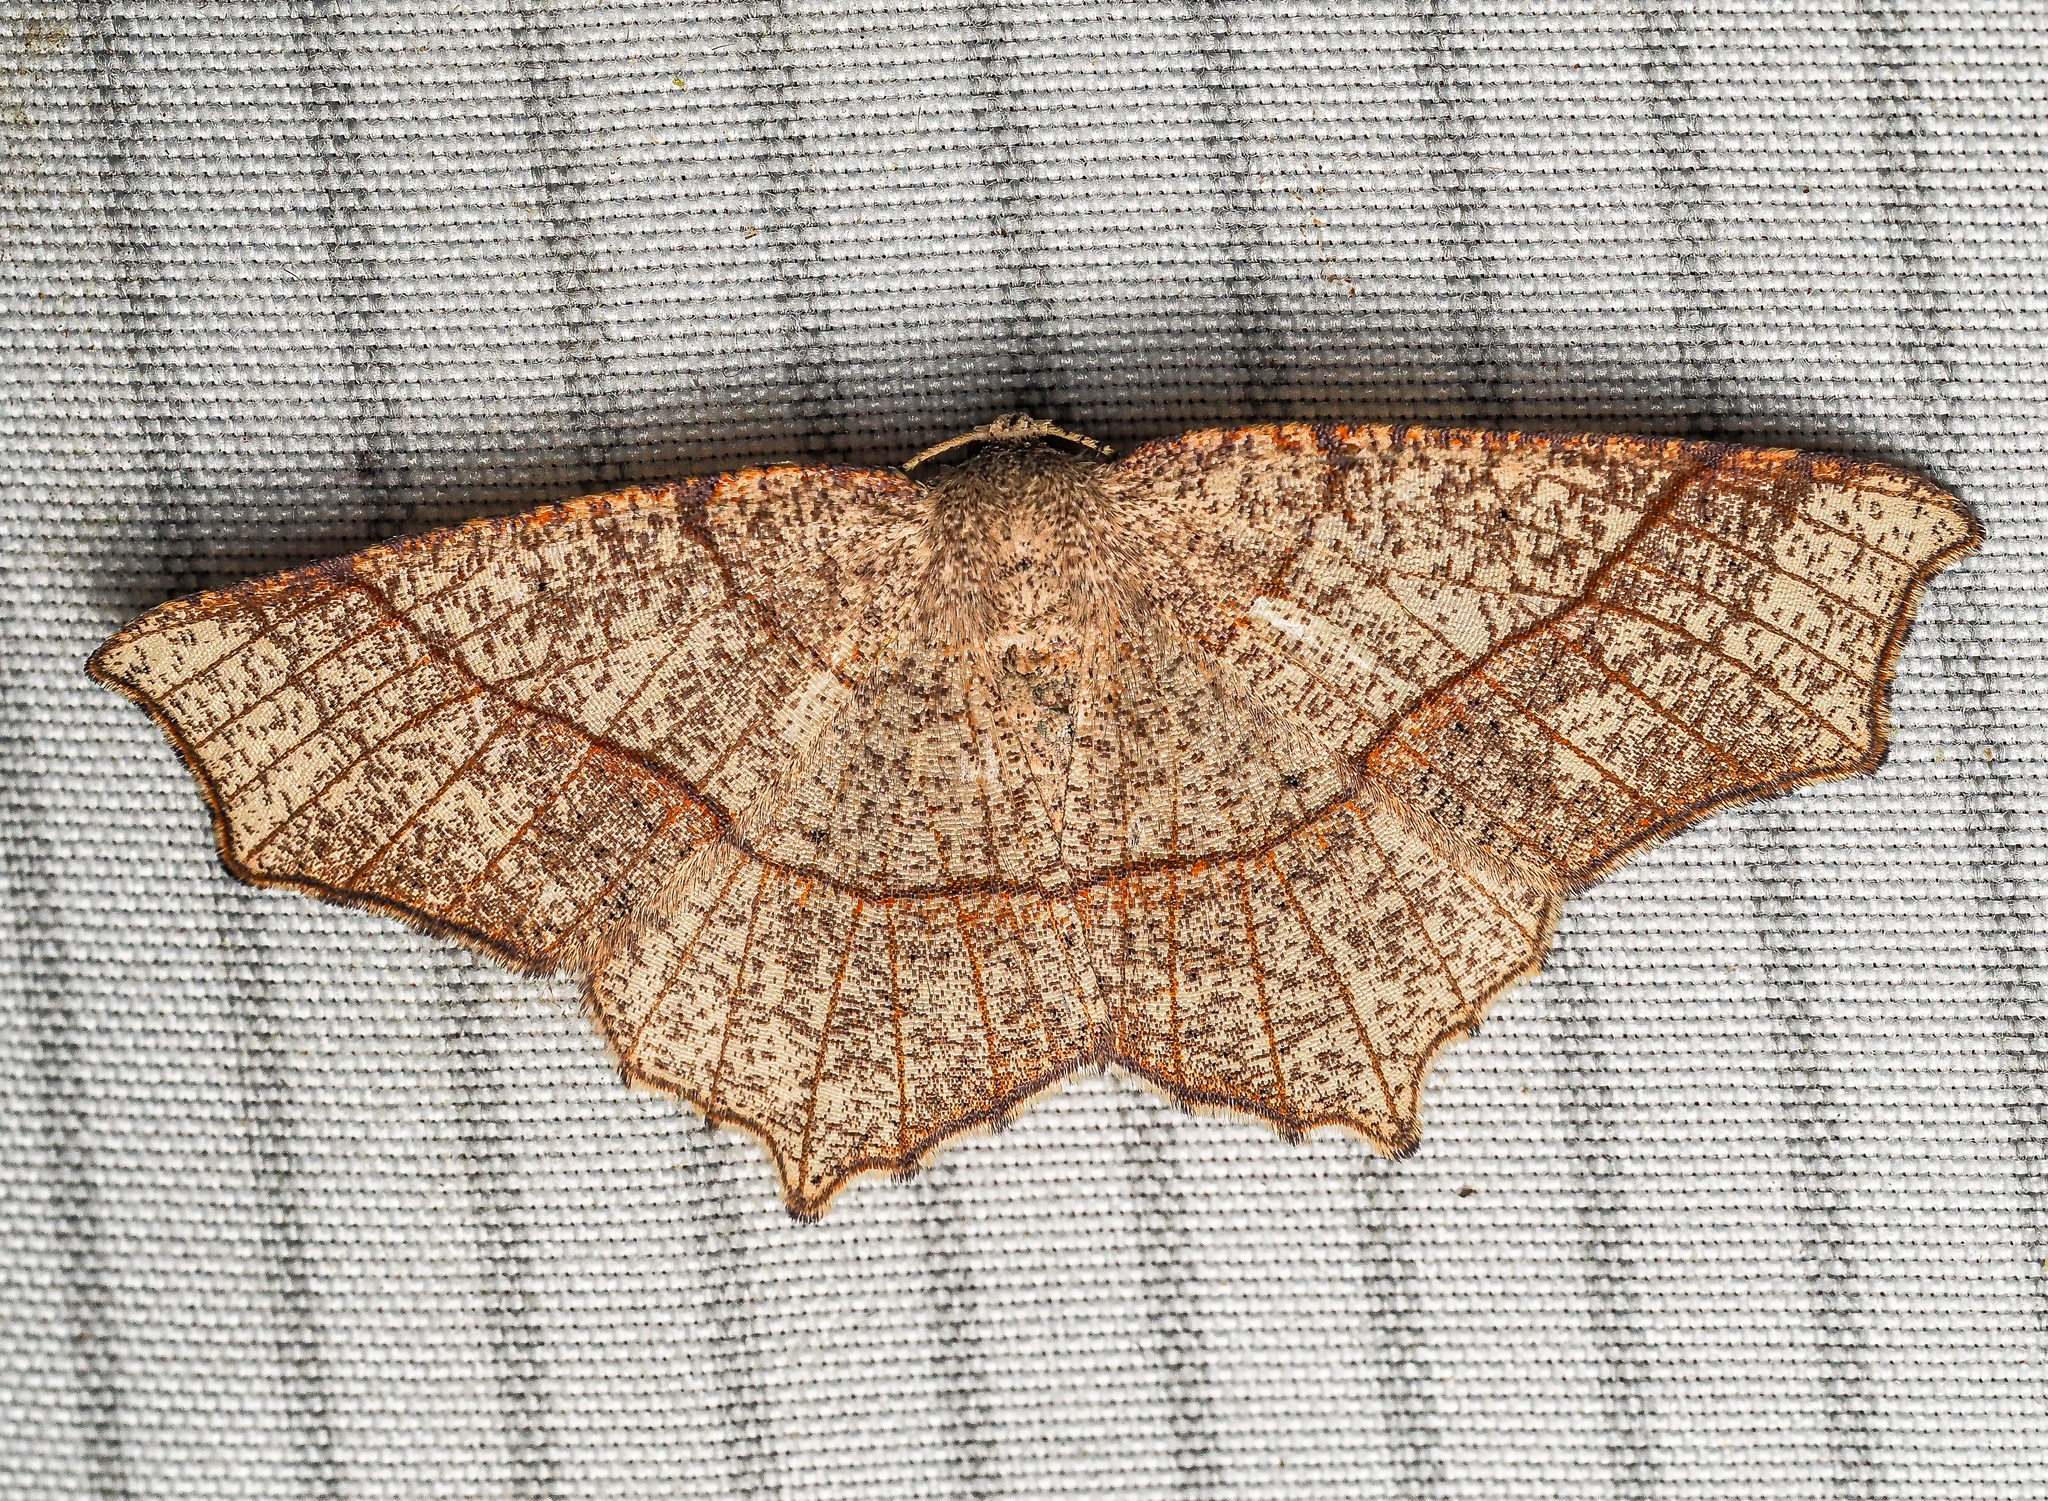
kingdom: Animalia
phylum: Arthropoda
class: Insecta
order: Lepidoptera
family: Geometridae
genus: Besma
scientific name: Besma quercivoraria
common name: Oak besma
